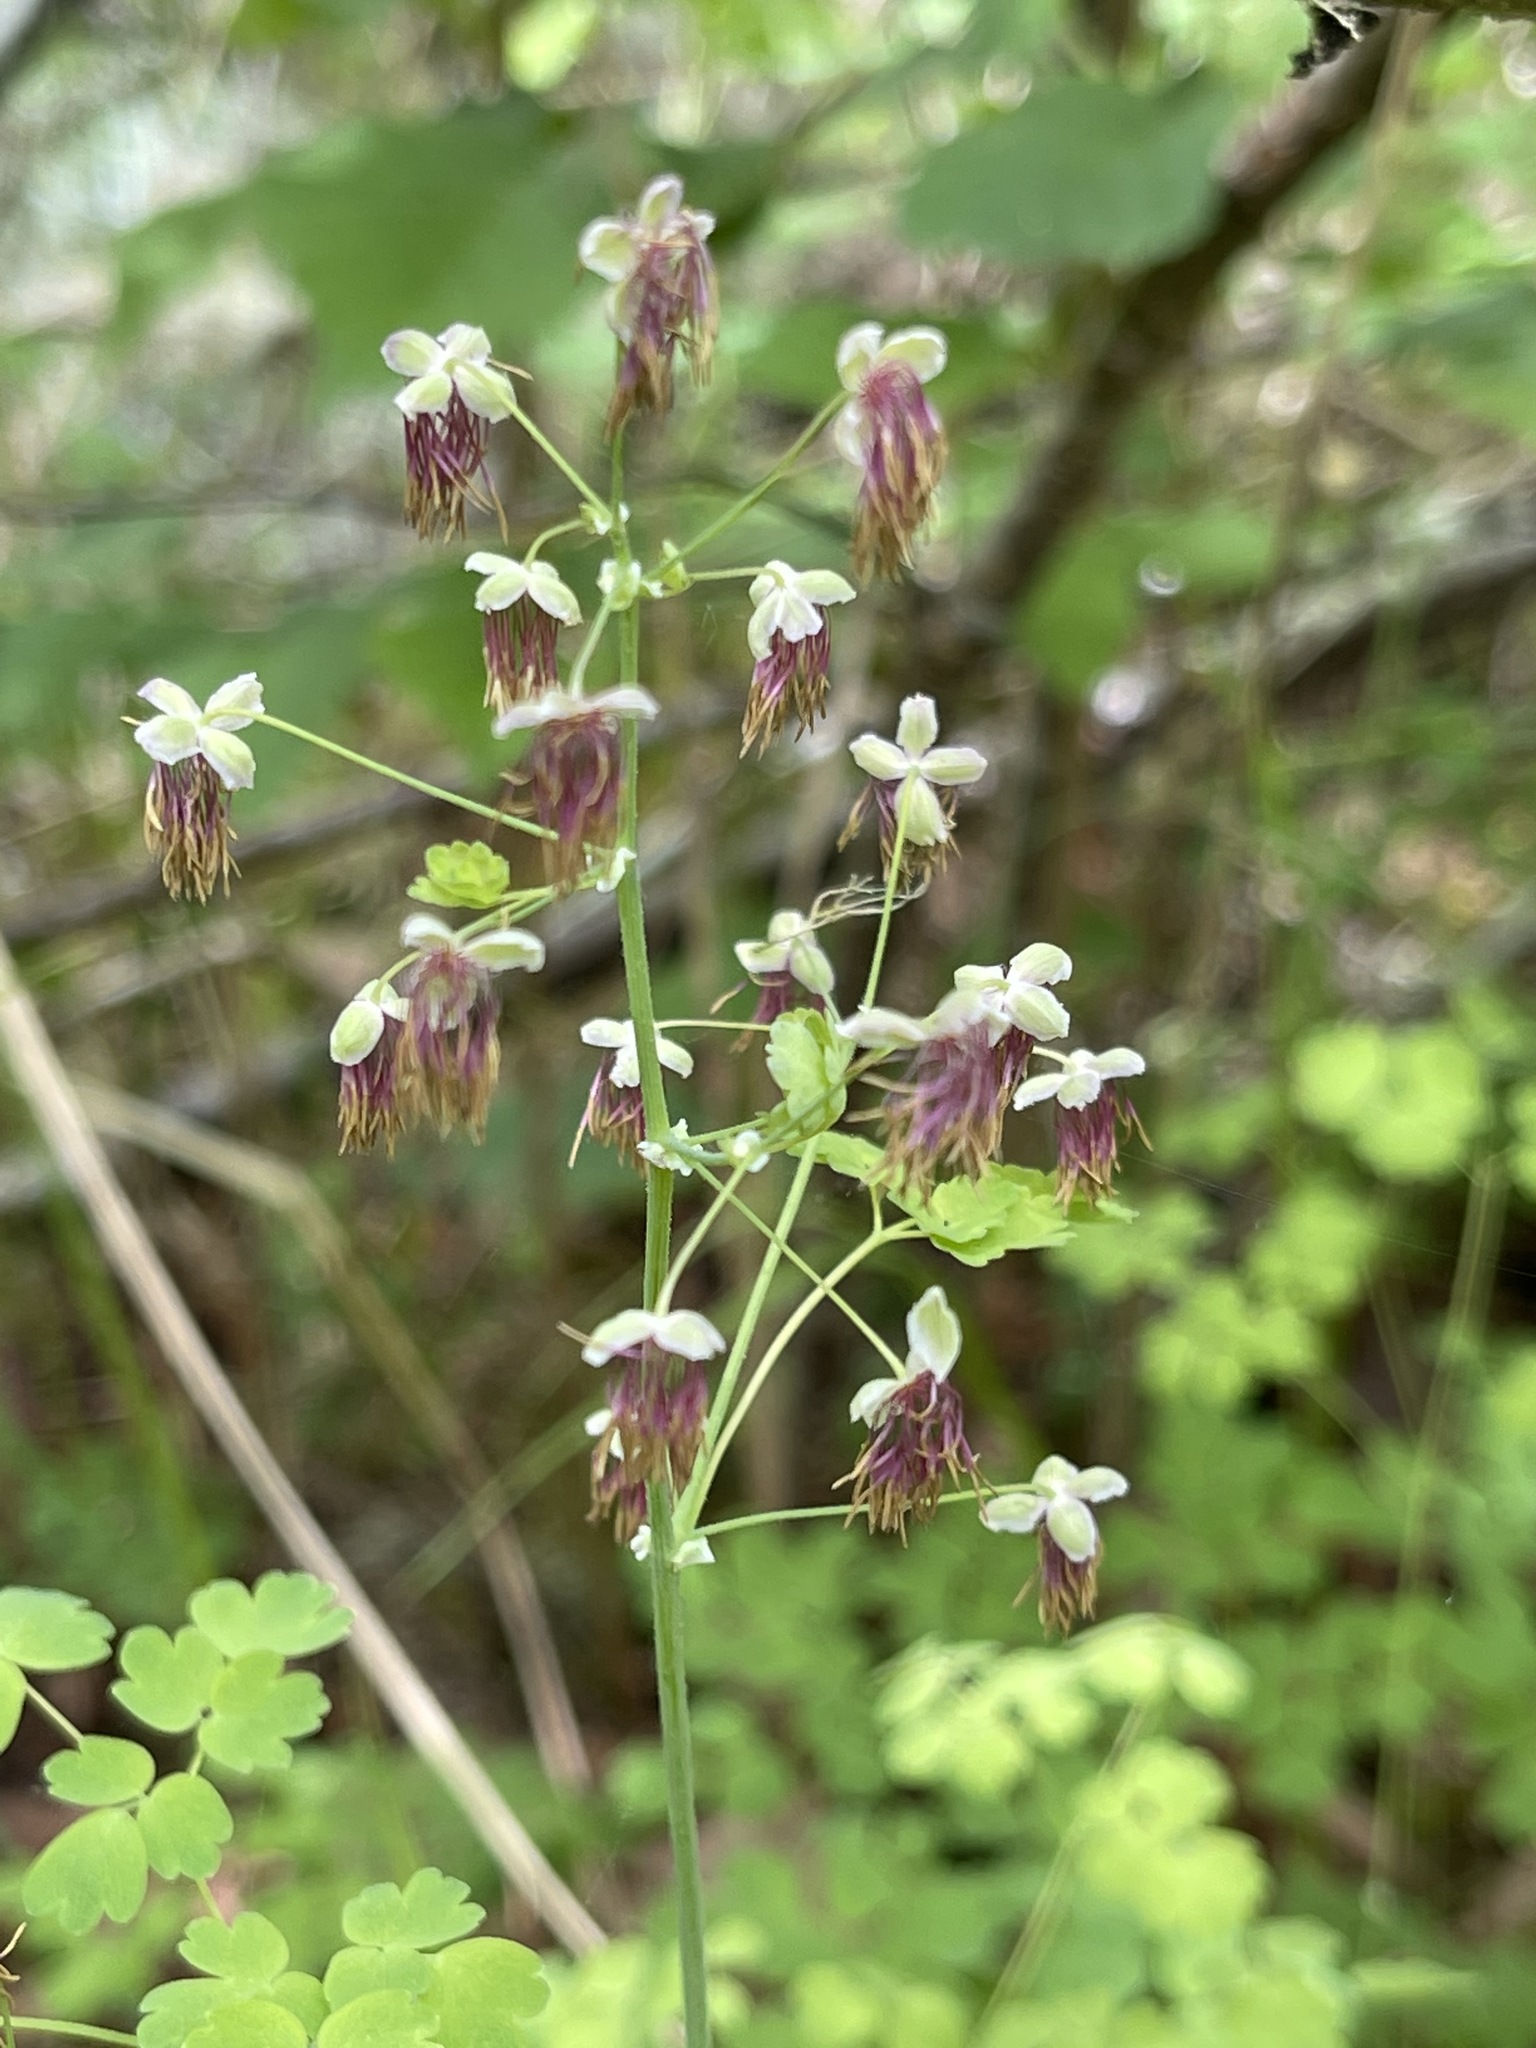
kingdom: Plantae
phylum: Tracheophyta
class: Magnoliopsida
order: Ranunculales
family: Ranunculaceae
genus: Thalictrum
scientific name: Thalictrum occidentale
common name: Western meadow-rue
